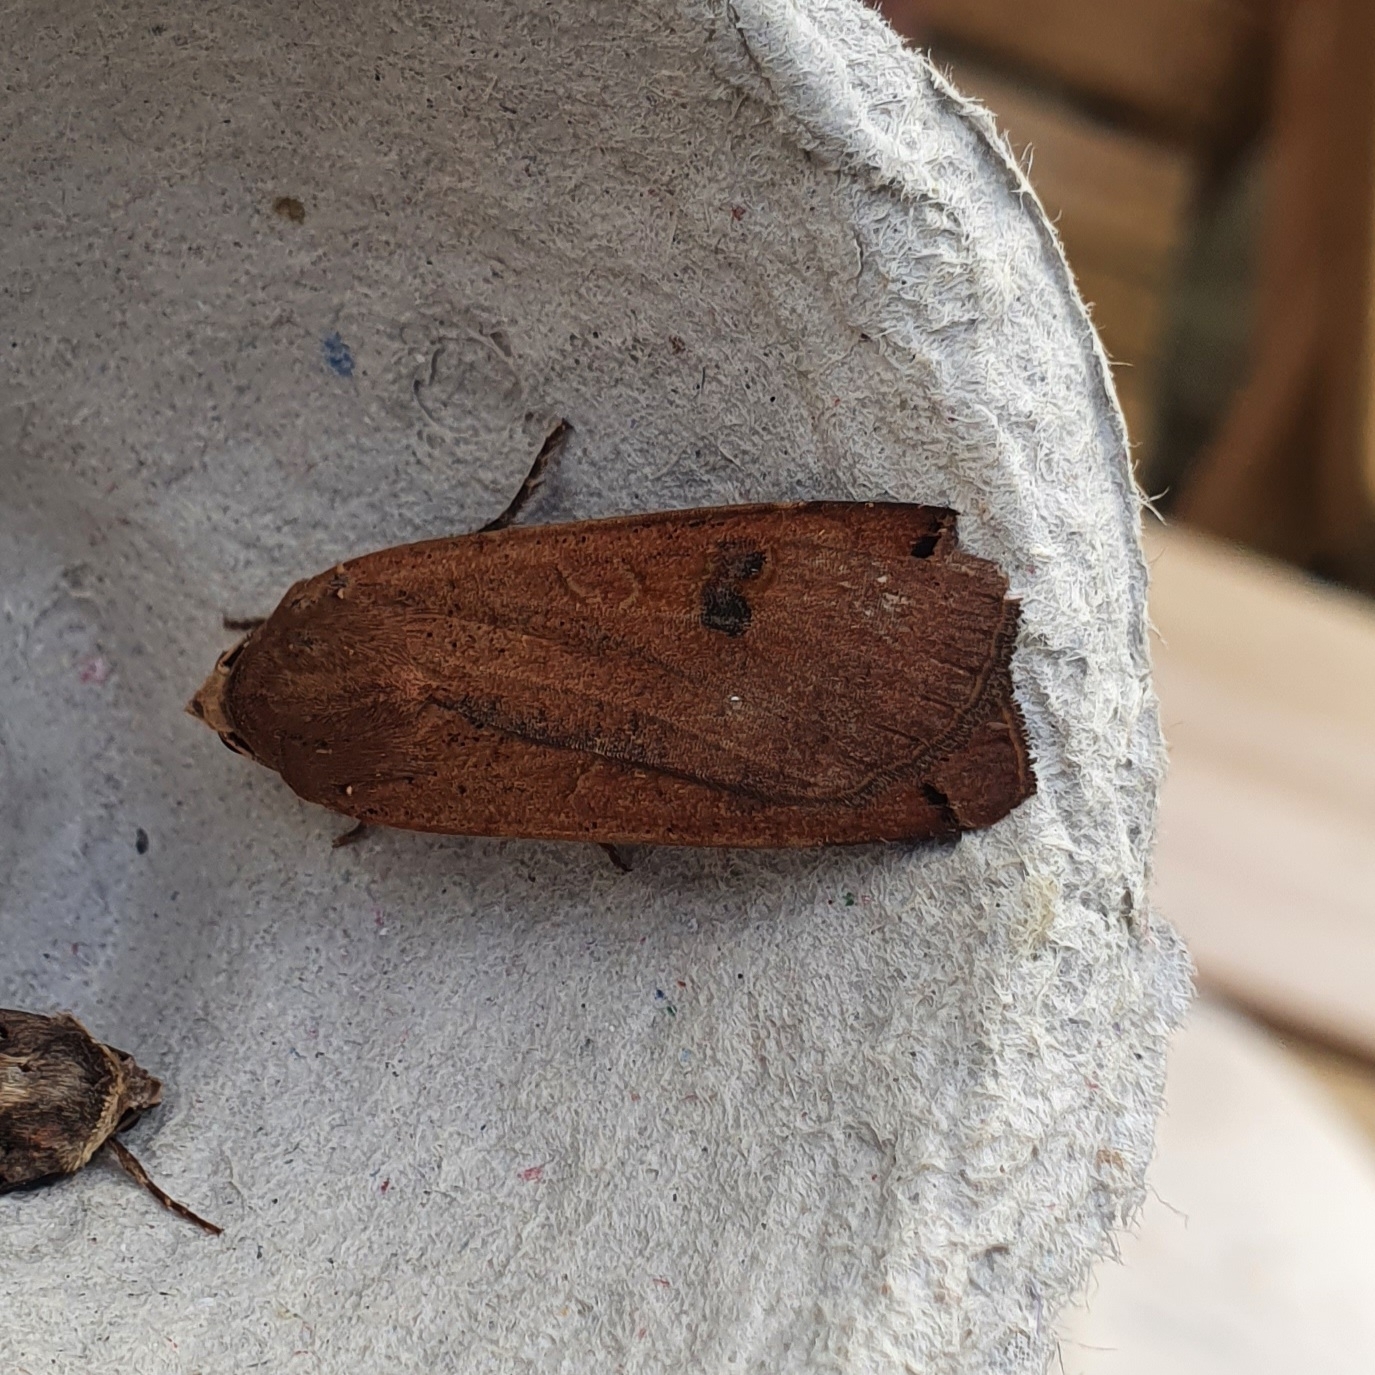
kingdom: Animalia
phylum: Arthropoda
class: Insecta
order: Lepidoptera
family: Noctuidae
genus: Noctua
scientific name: Noctua pronuba
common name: Large yellow underwing
